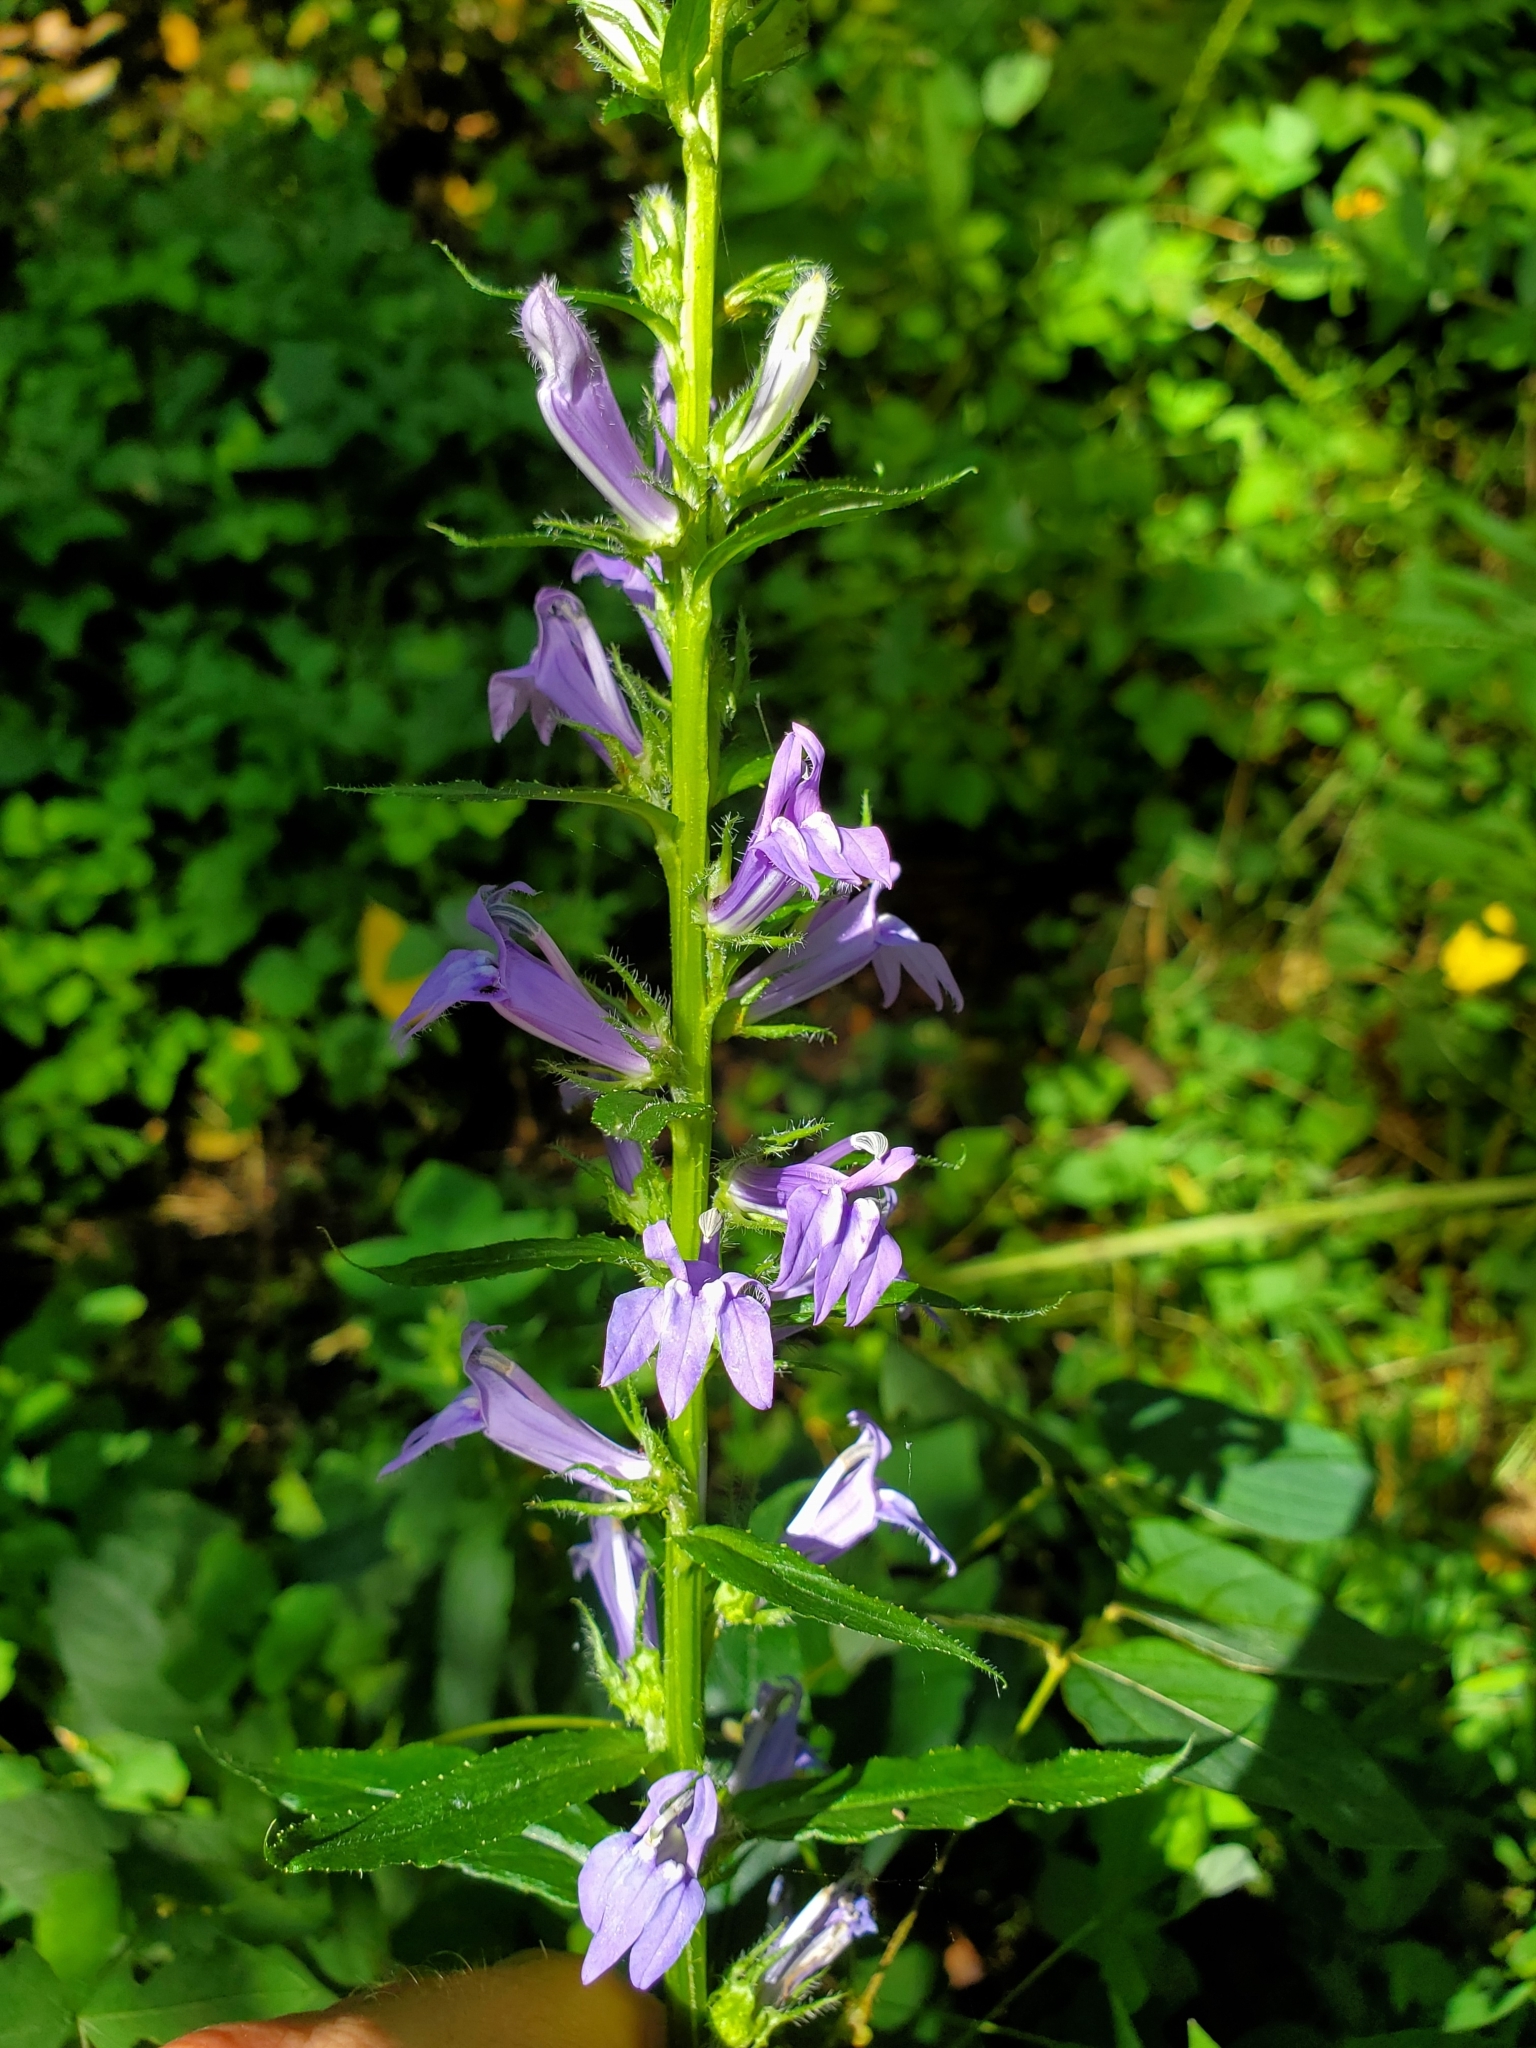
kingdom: Plantae
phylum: Tracheophyta
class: Magnoliopsida
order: Asterales
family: Campanulaceae
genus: Lobelia
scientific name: Lobelia siphilitica
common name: Great lobelia
